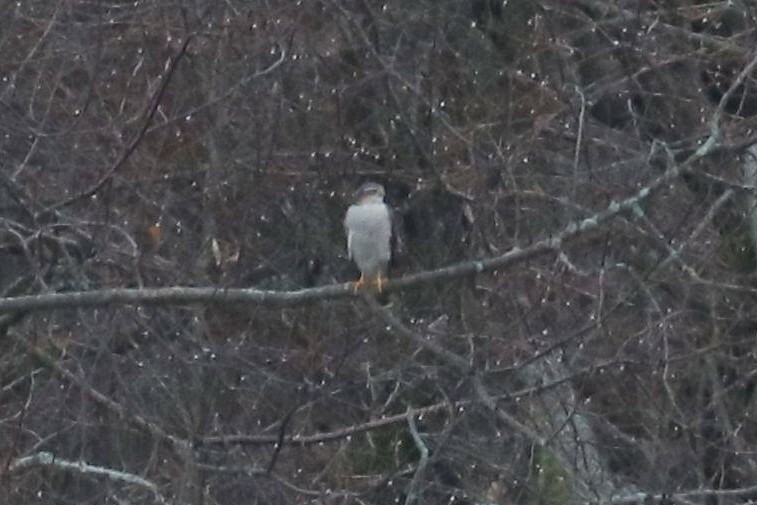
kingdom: Animalia
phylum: Chordata
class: Aves
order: Accipitriformes
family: Accipitridae
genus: Accipiter
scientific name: Accipiter nisus
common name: Eurasian sparrowhawk
